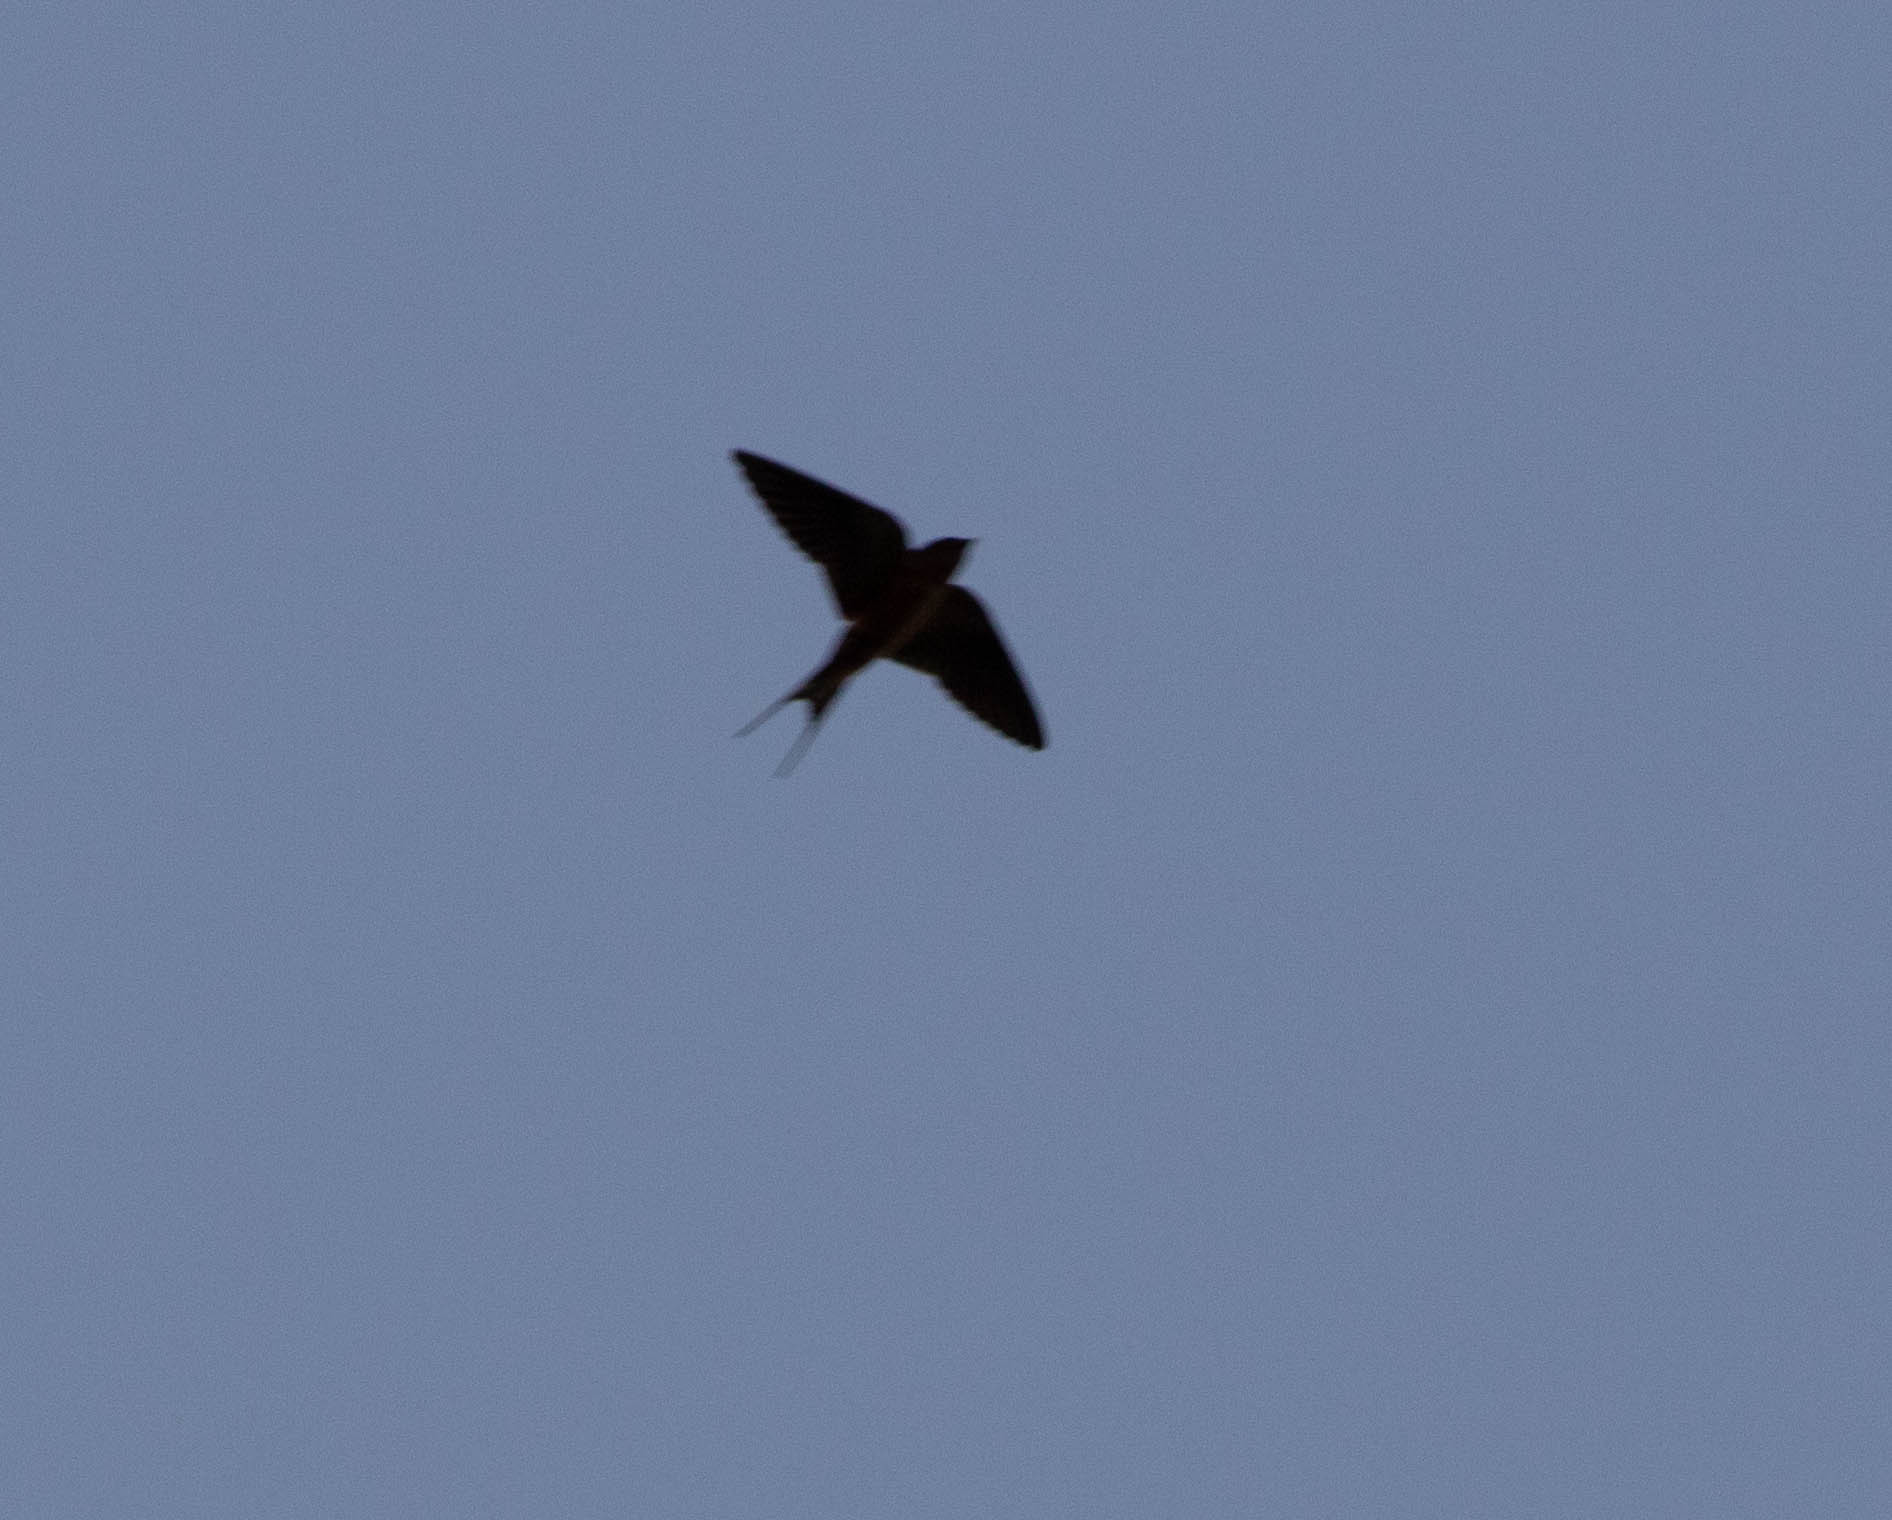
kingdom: Animalia
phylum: Chordata
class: Aves
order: Passeriformes
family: Hirundinidae
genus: Hirundo
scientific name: Hirundo rustica
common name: Barn swallow
